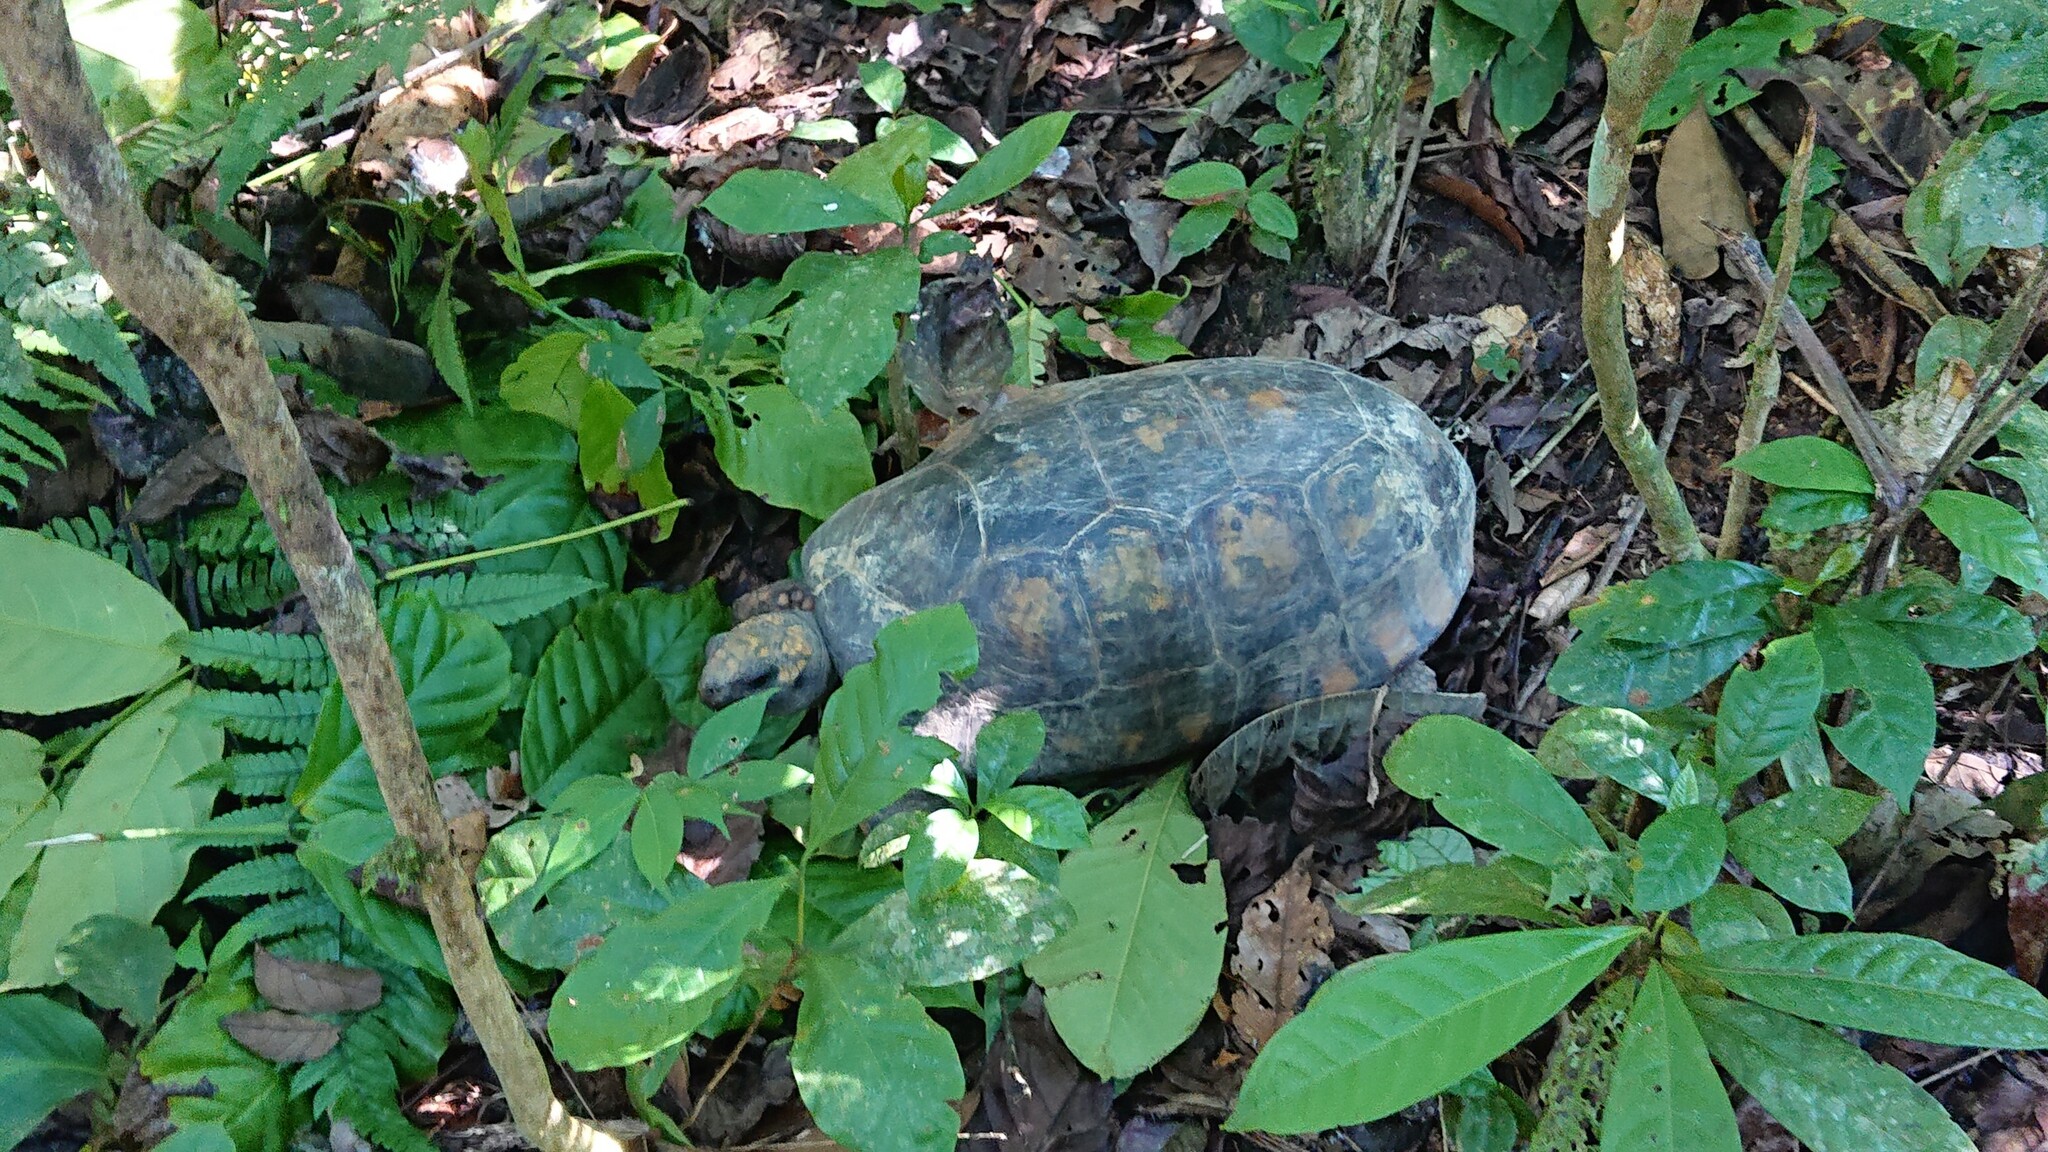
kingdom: Animalia
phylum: Chordata
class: Testudines
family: Testudinidae
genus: Chelonoidis
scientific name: Chelonoidis denticulatus
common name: Yellow-footed tortoise
